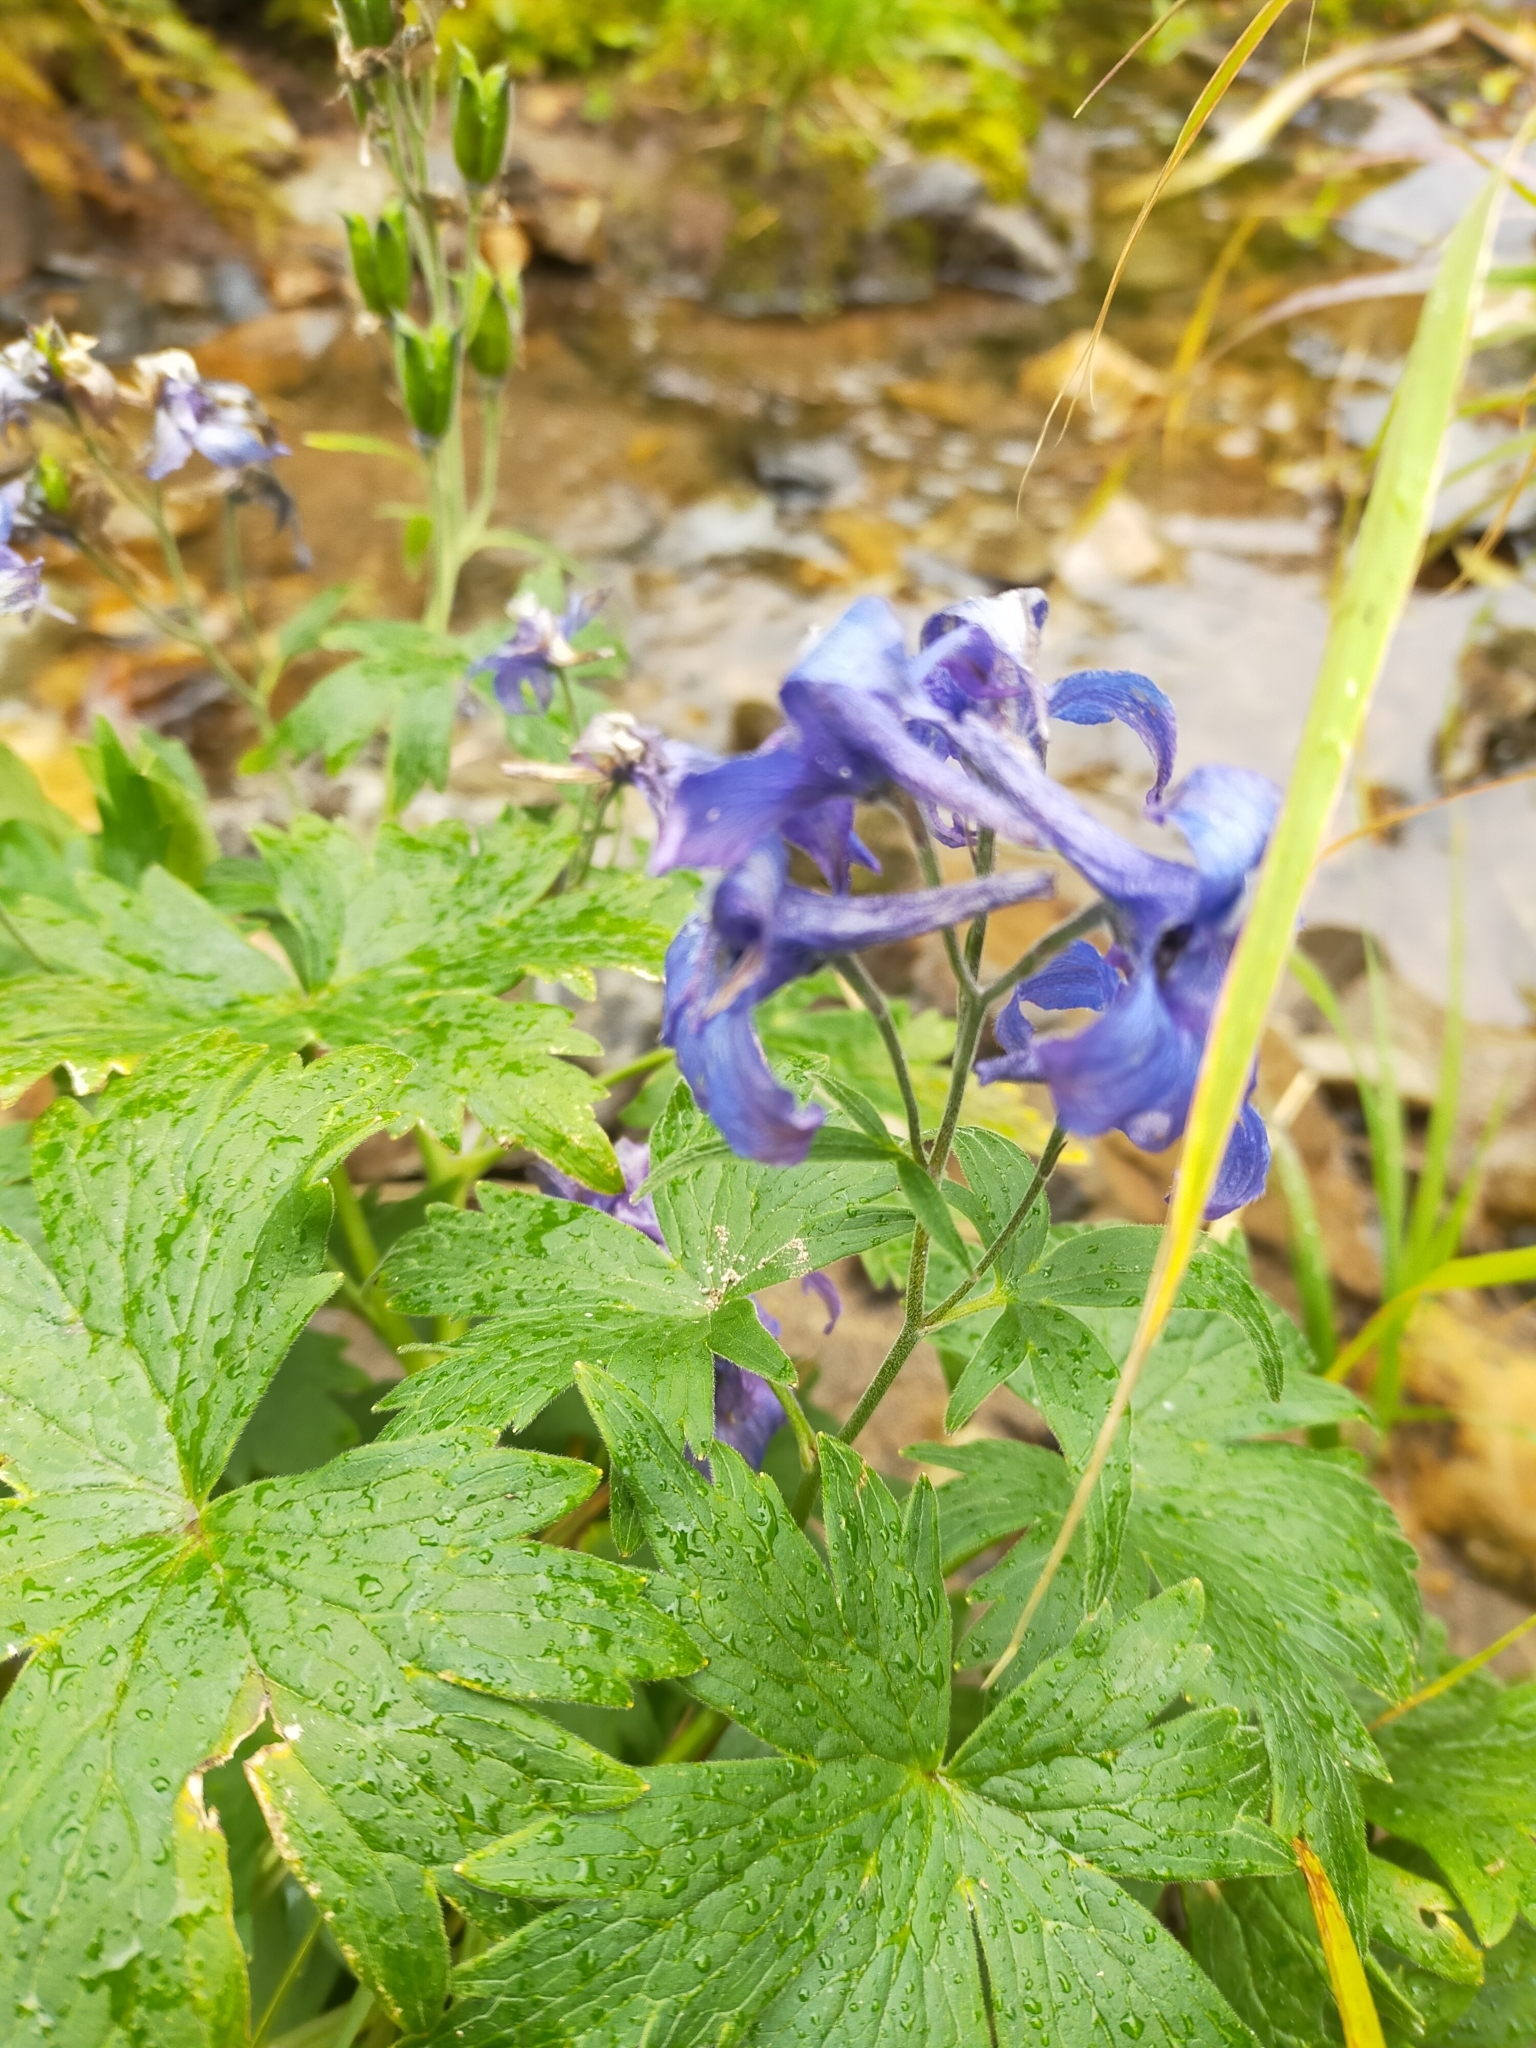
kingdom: Plantae
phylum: Tracheophyta
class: Magnoliopsida
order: Ranunculales
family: Ranunculaceae
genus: Delphinium
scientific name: Delphinium brachycentrum
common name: Arctic larkspur
